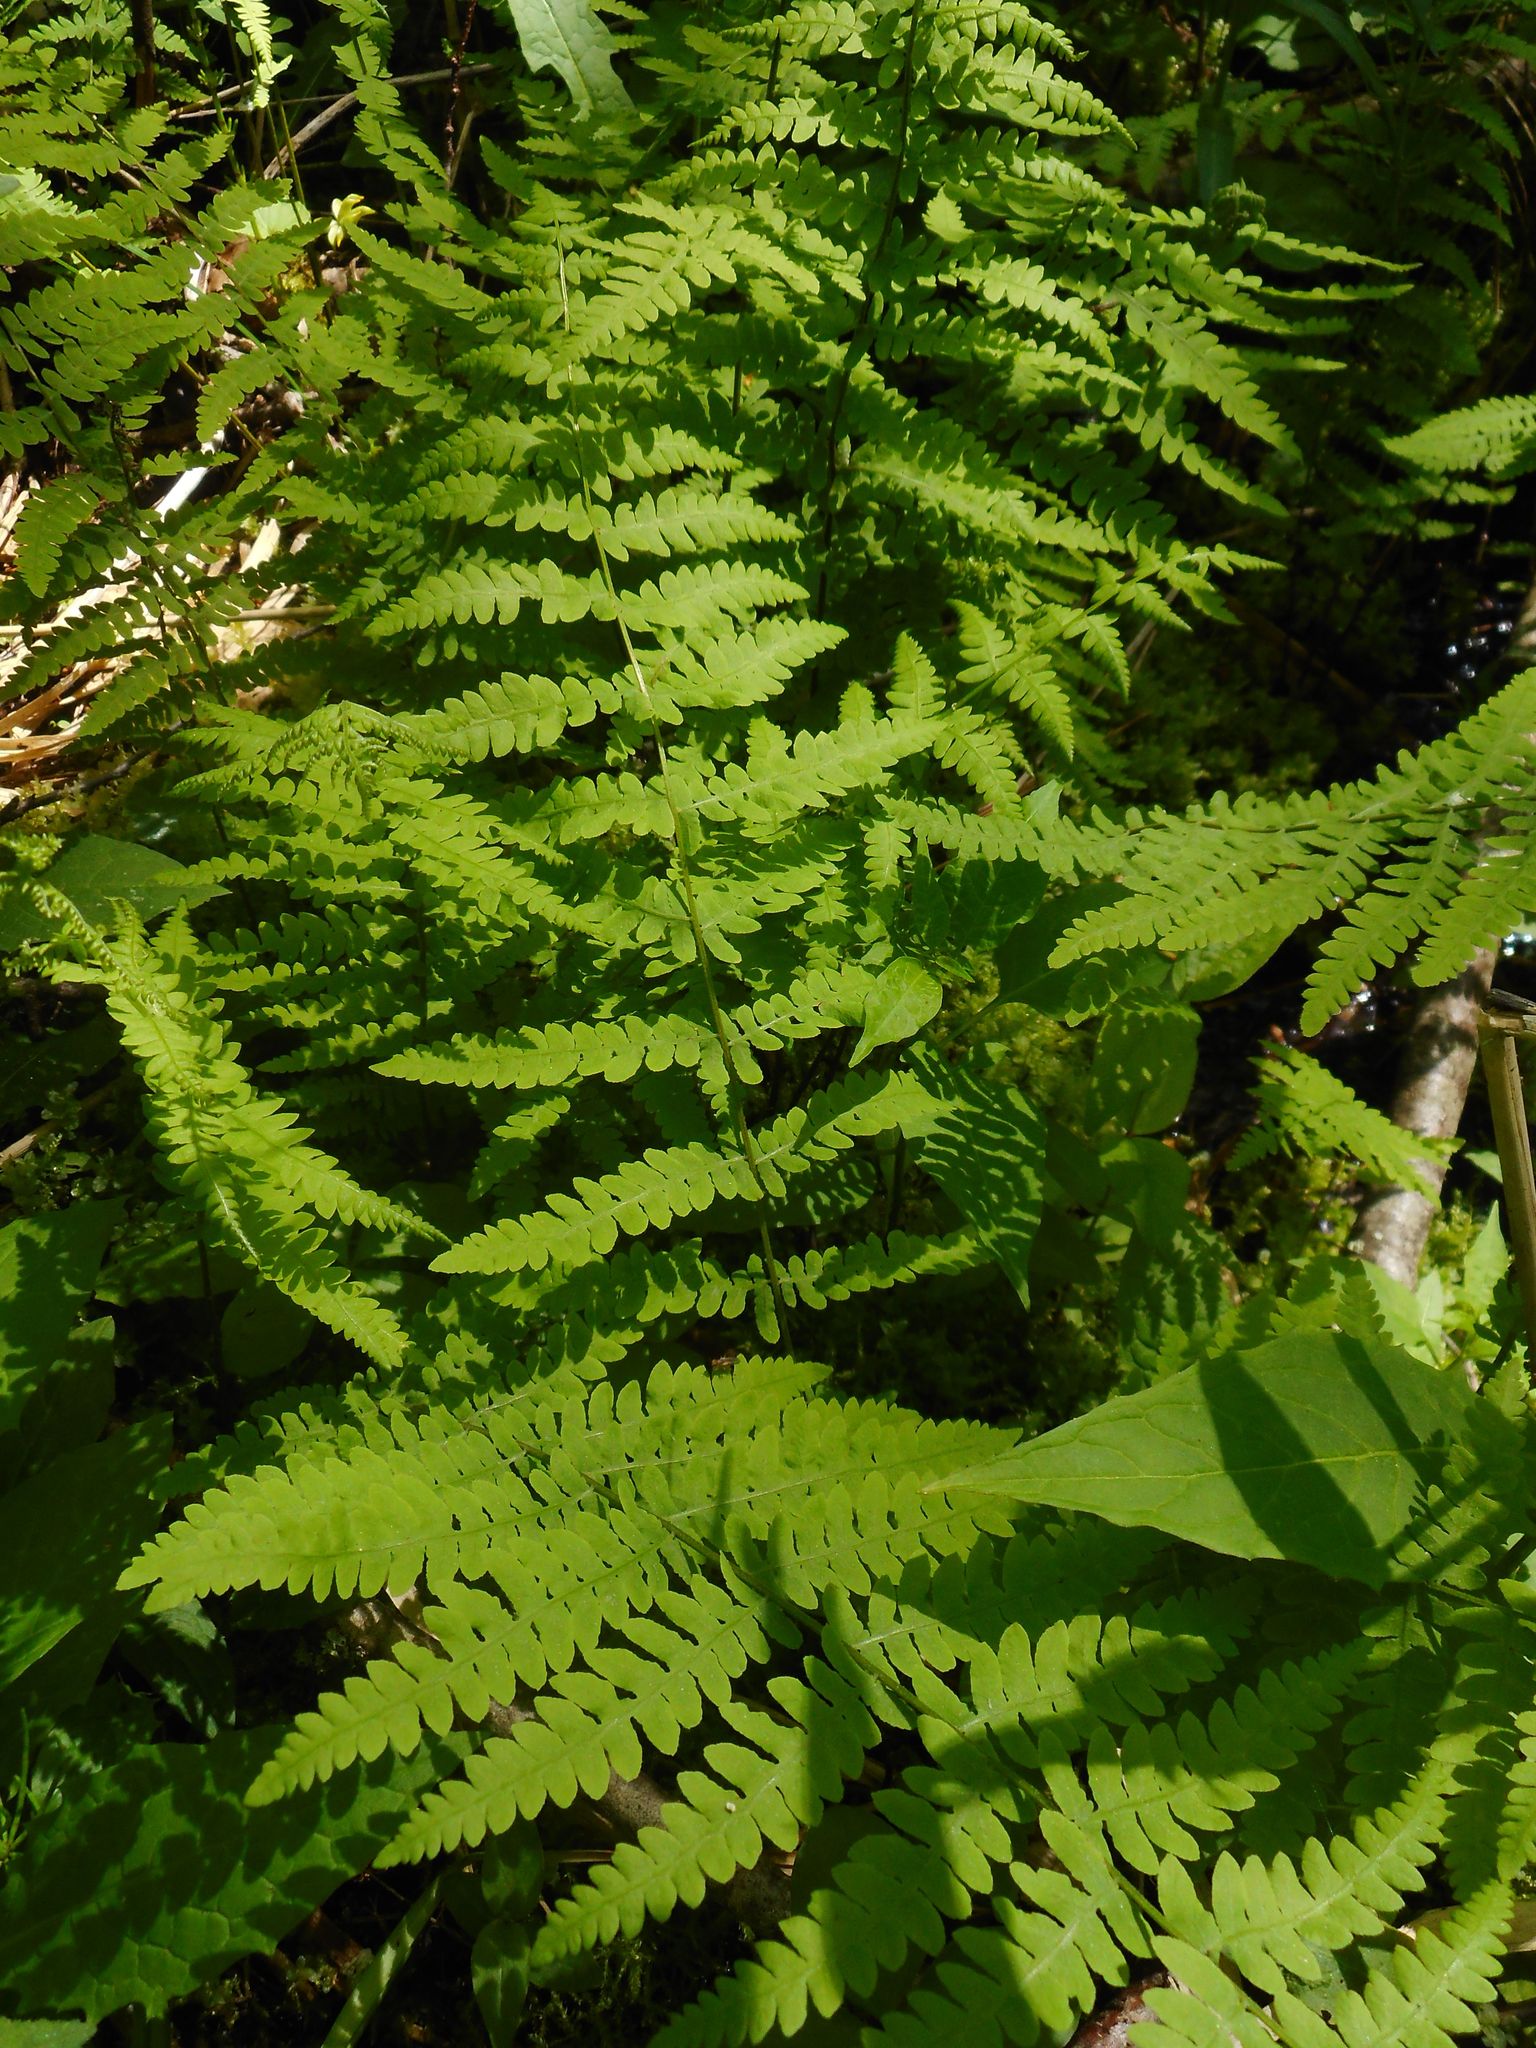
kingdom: Plantae
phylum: Tracheophyta
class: Polypodiopsida
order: Polypodiales
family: Thelypteridaceae
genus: Thelypteris
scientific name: Thelypteris palustris
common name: Marsh fern
